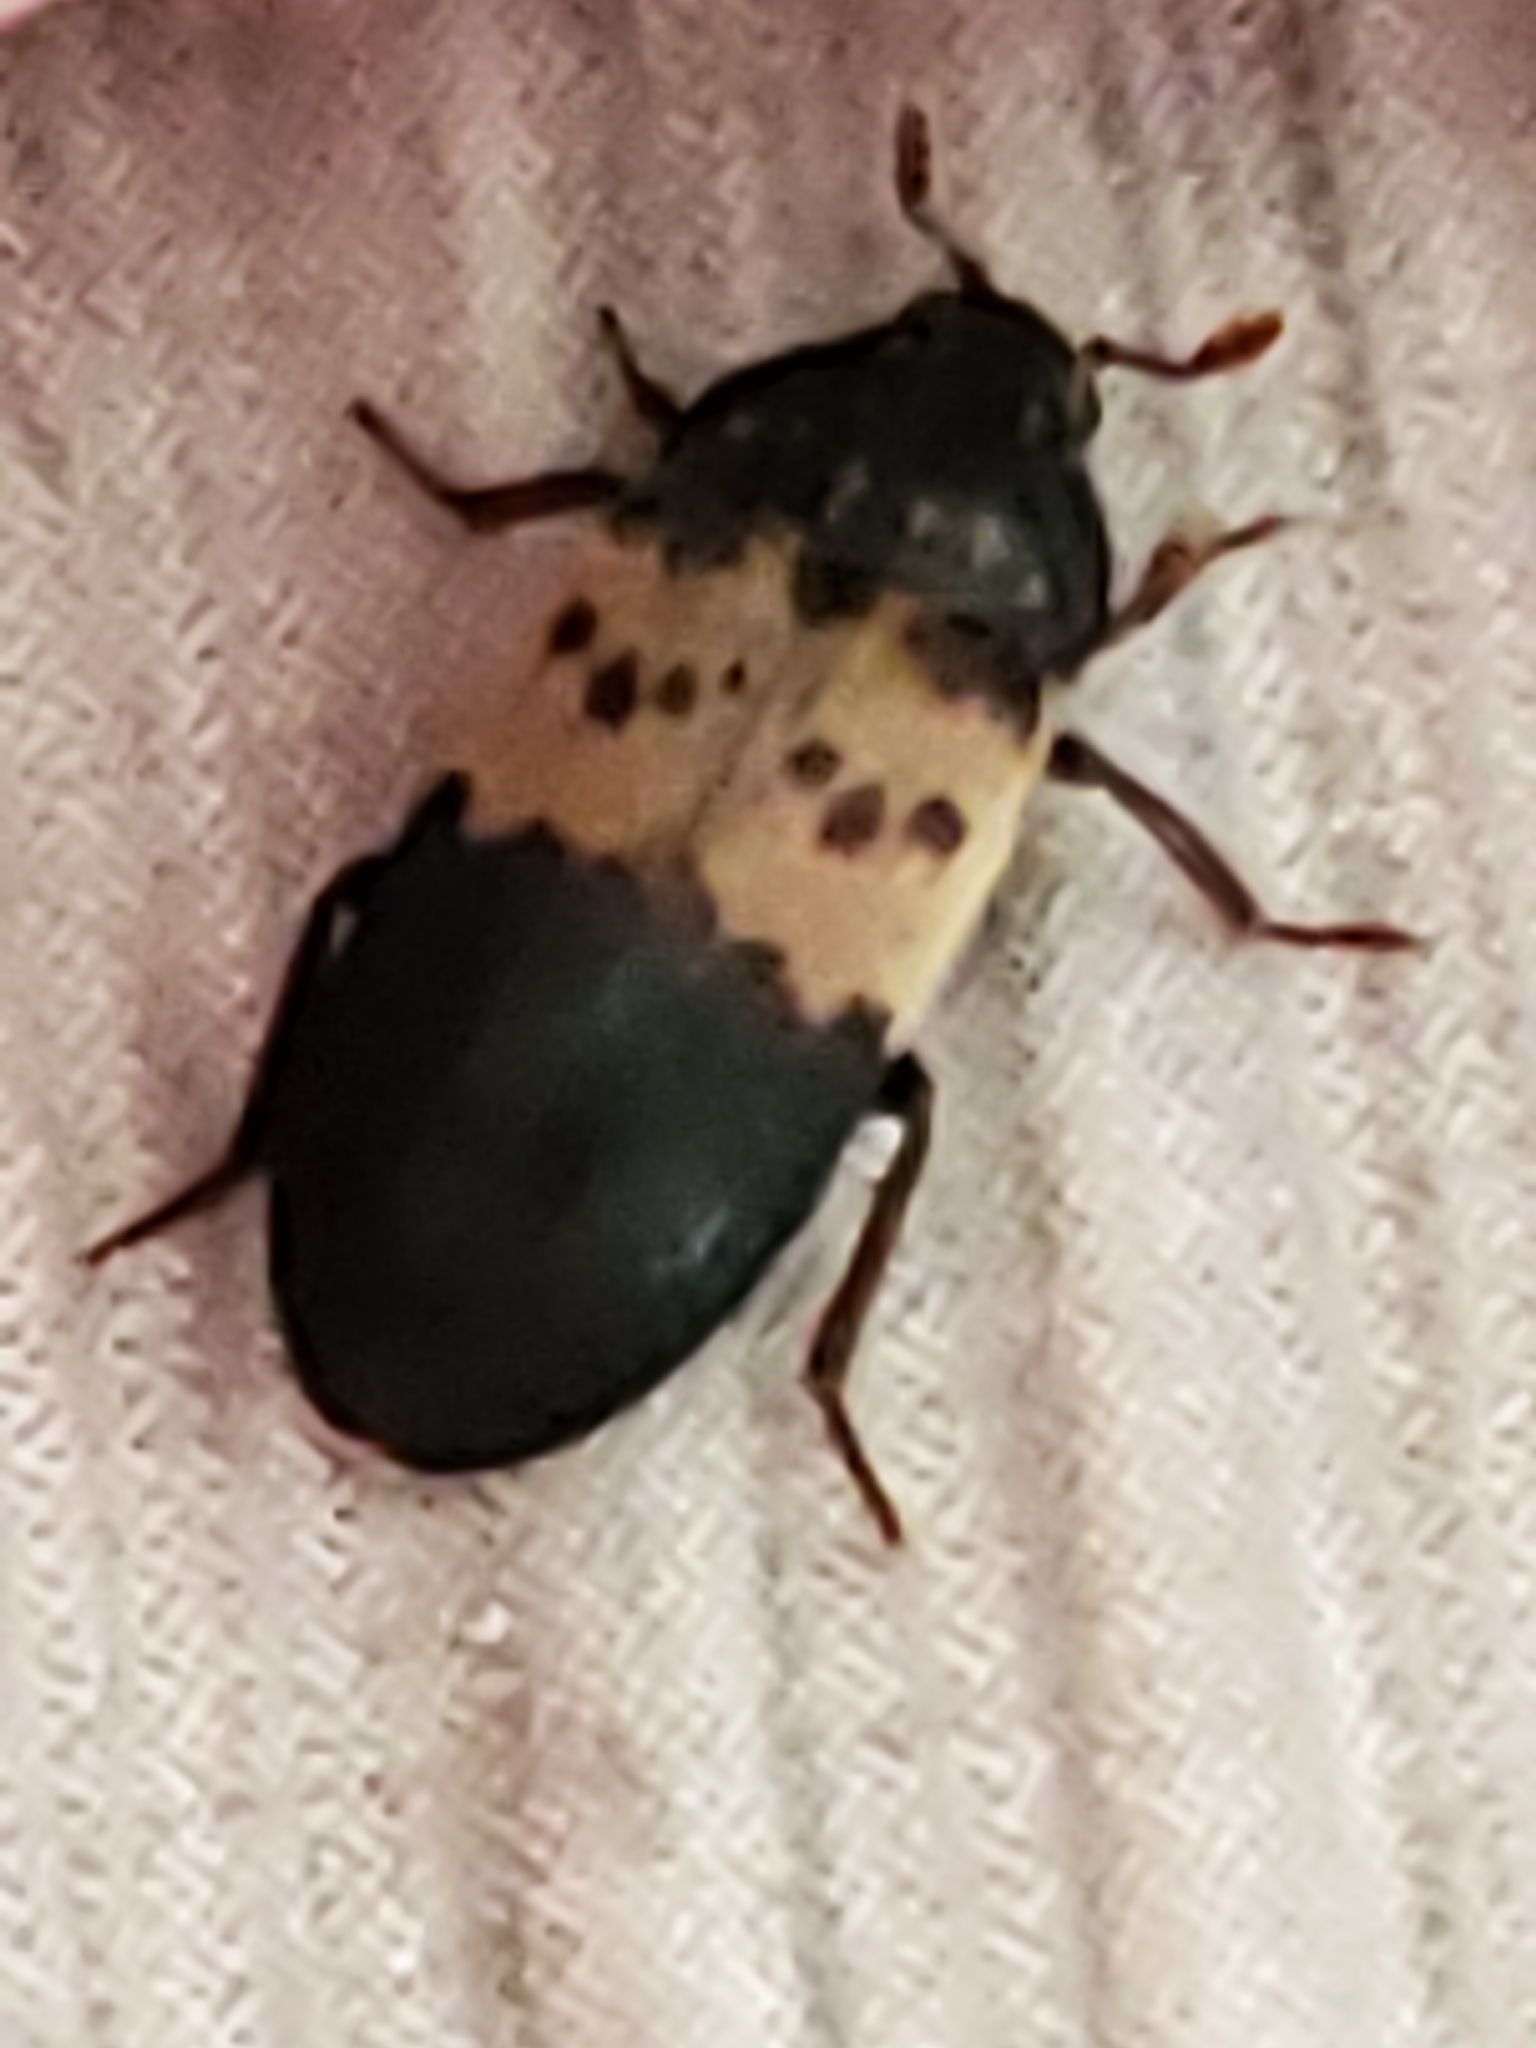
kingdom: Animalia
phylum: Arthropoda
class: Insecta
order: Coleoptera
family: Dermestidae
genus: Dermestes
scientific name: Dermestes lardarius
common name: Larder beetle
